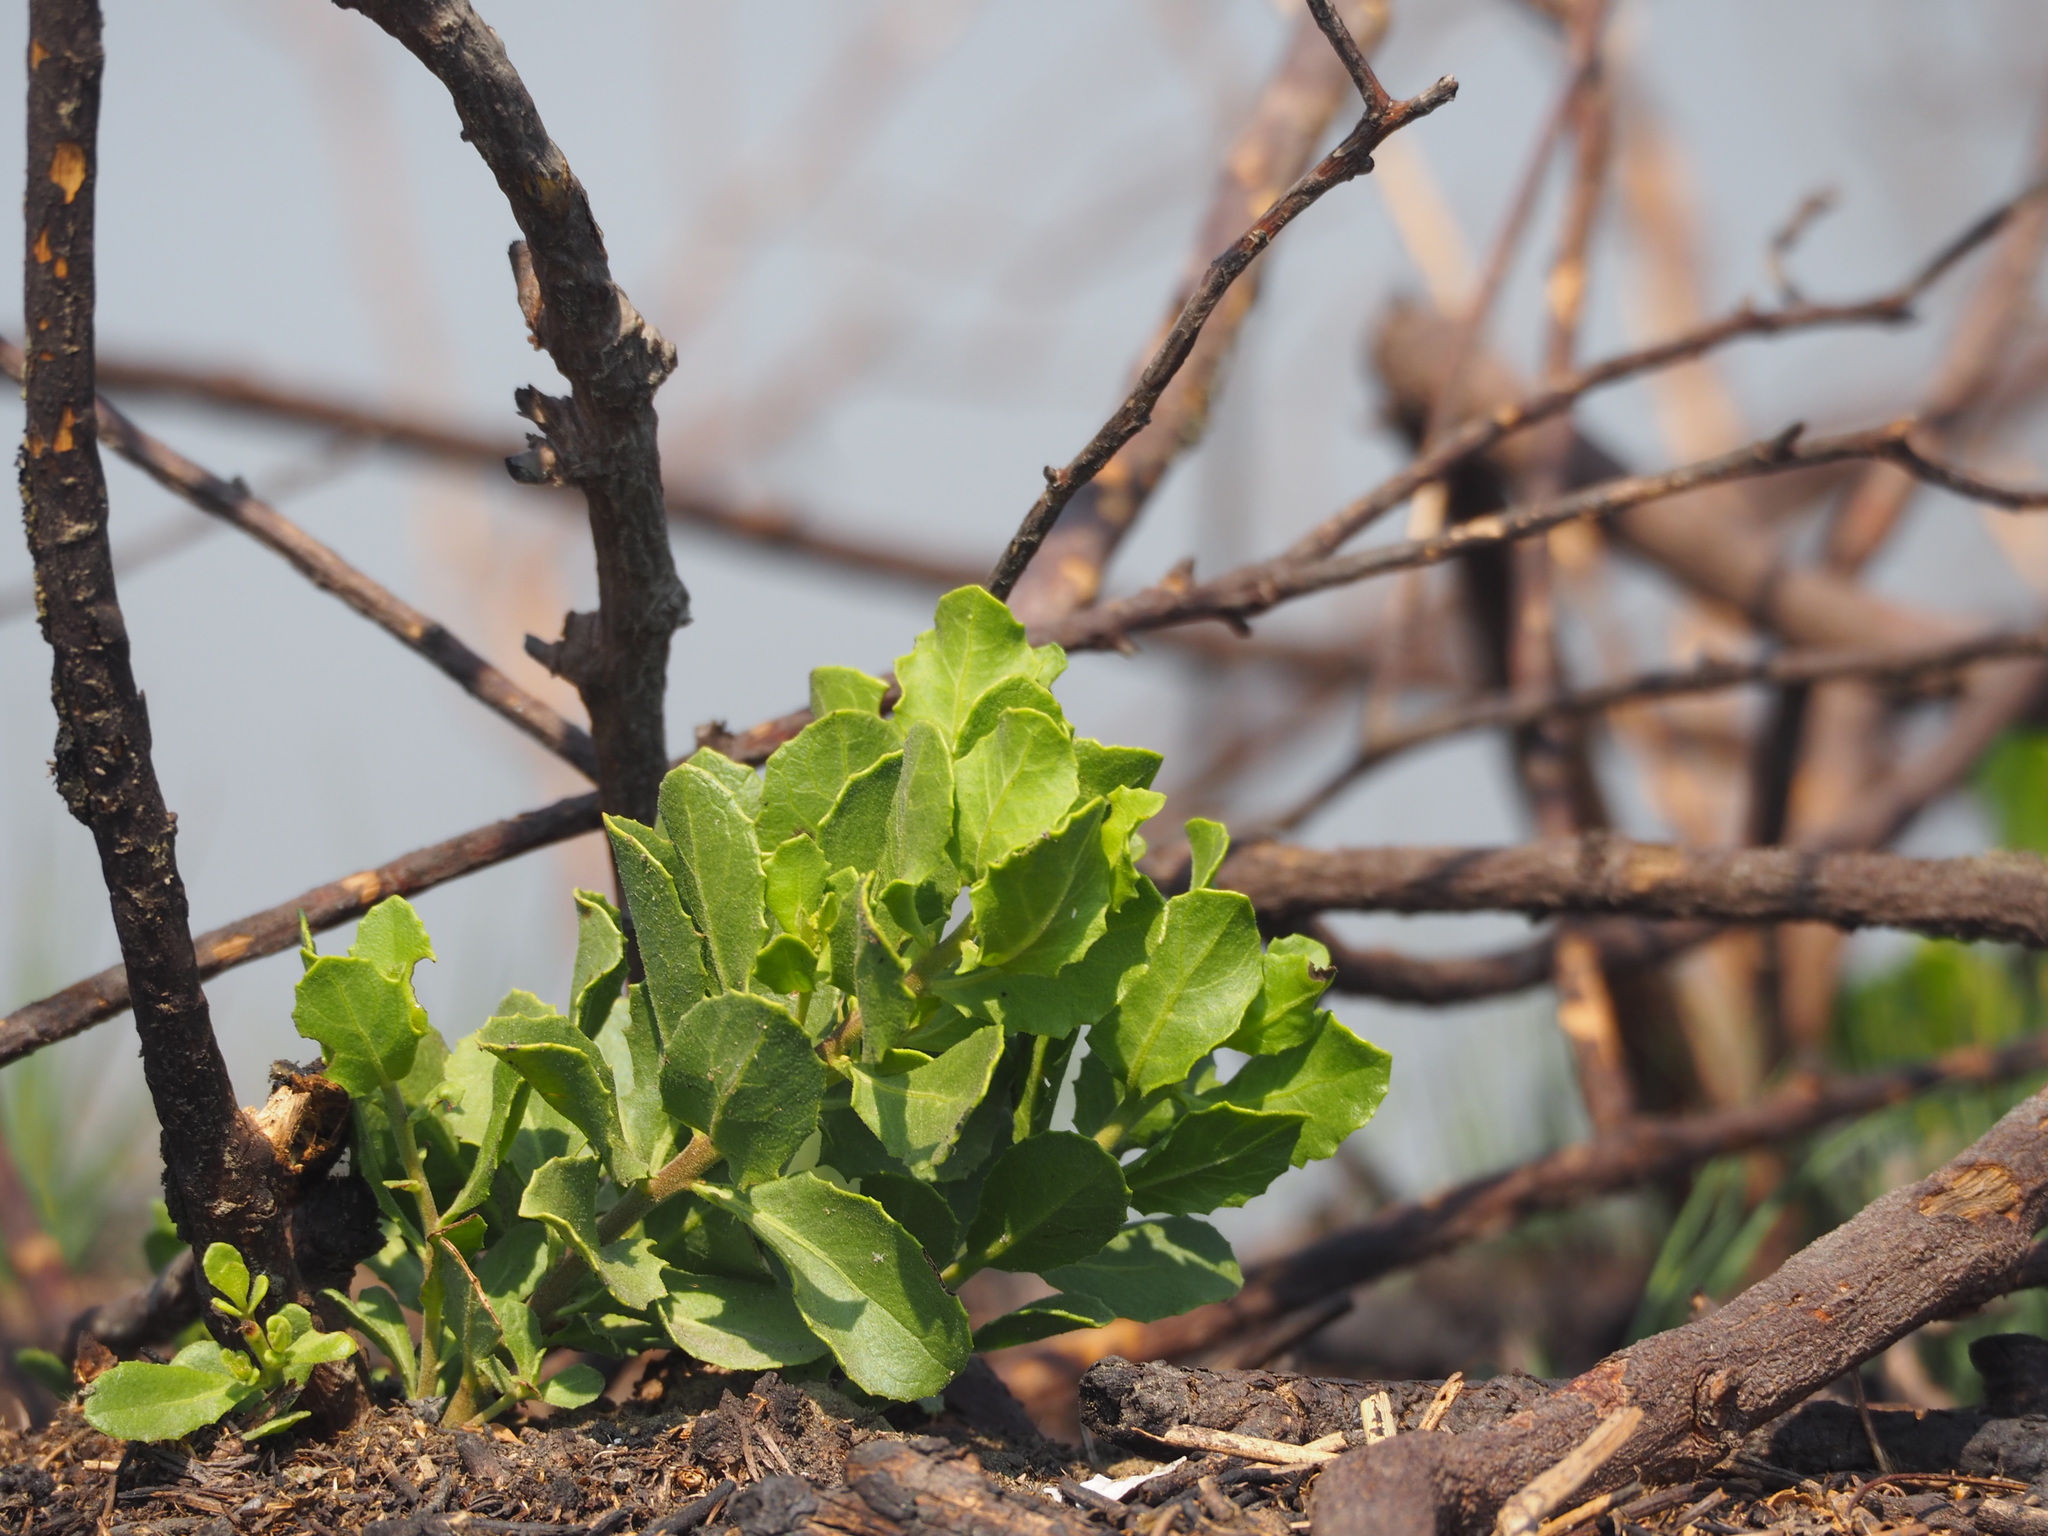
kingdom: Plantae
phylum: Tracheophyta
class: Magnoliopsida
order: Asterales
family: Asteraceae
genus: Pluchea
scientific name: Pluchea indica
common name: Indian fleabane
